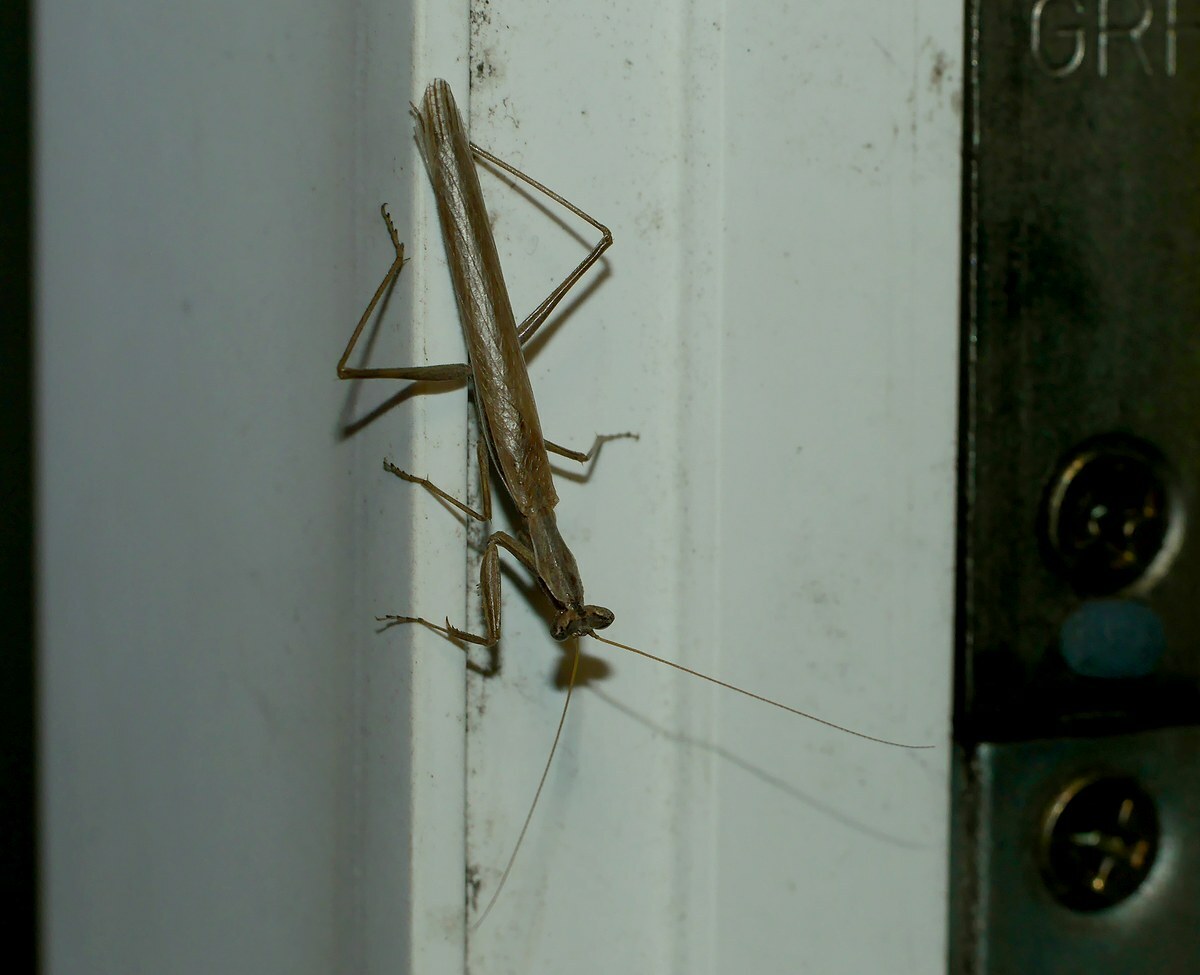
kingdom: Animalia
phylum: Arthropoda
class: Insecta
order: Mantodea
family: Amelidae
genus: Ameles
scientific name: Ameles heldreichi
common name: Heldreich's dwarf mantis
